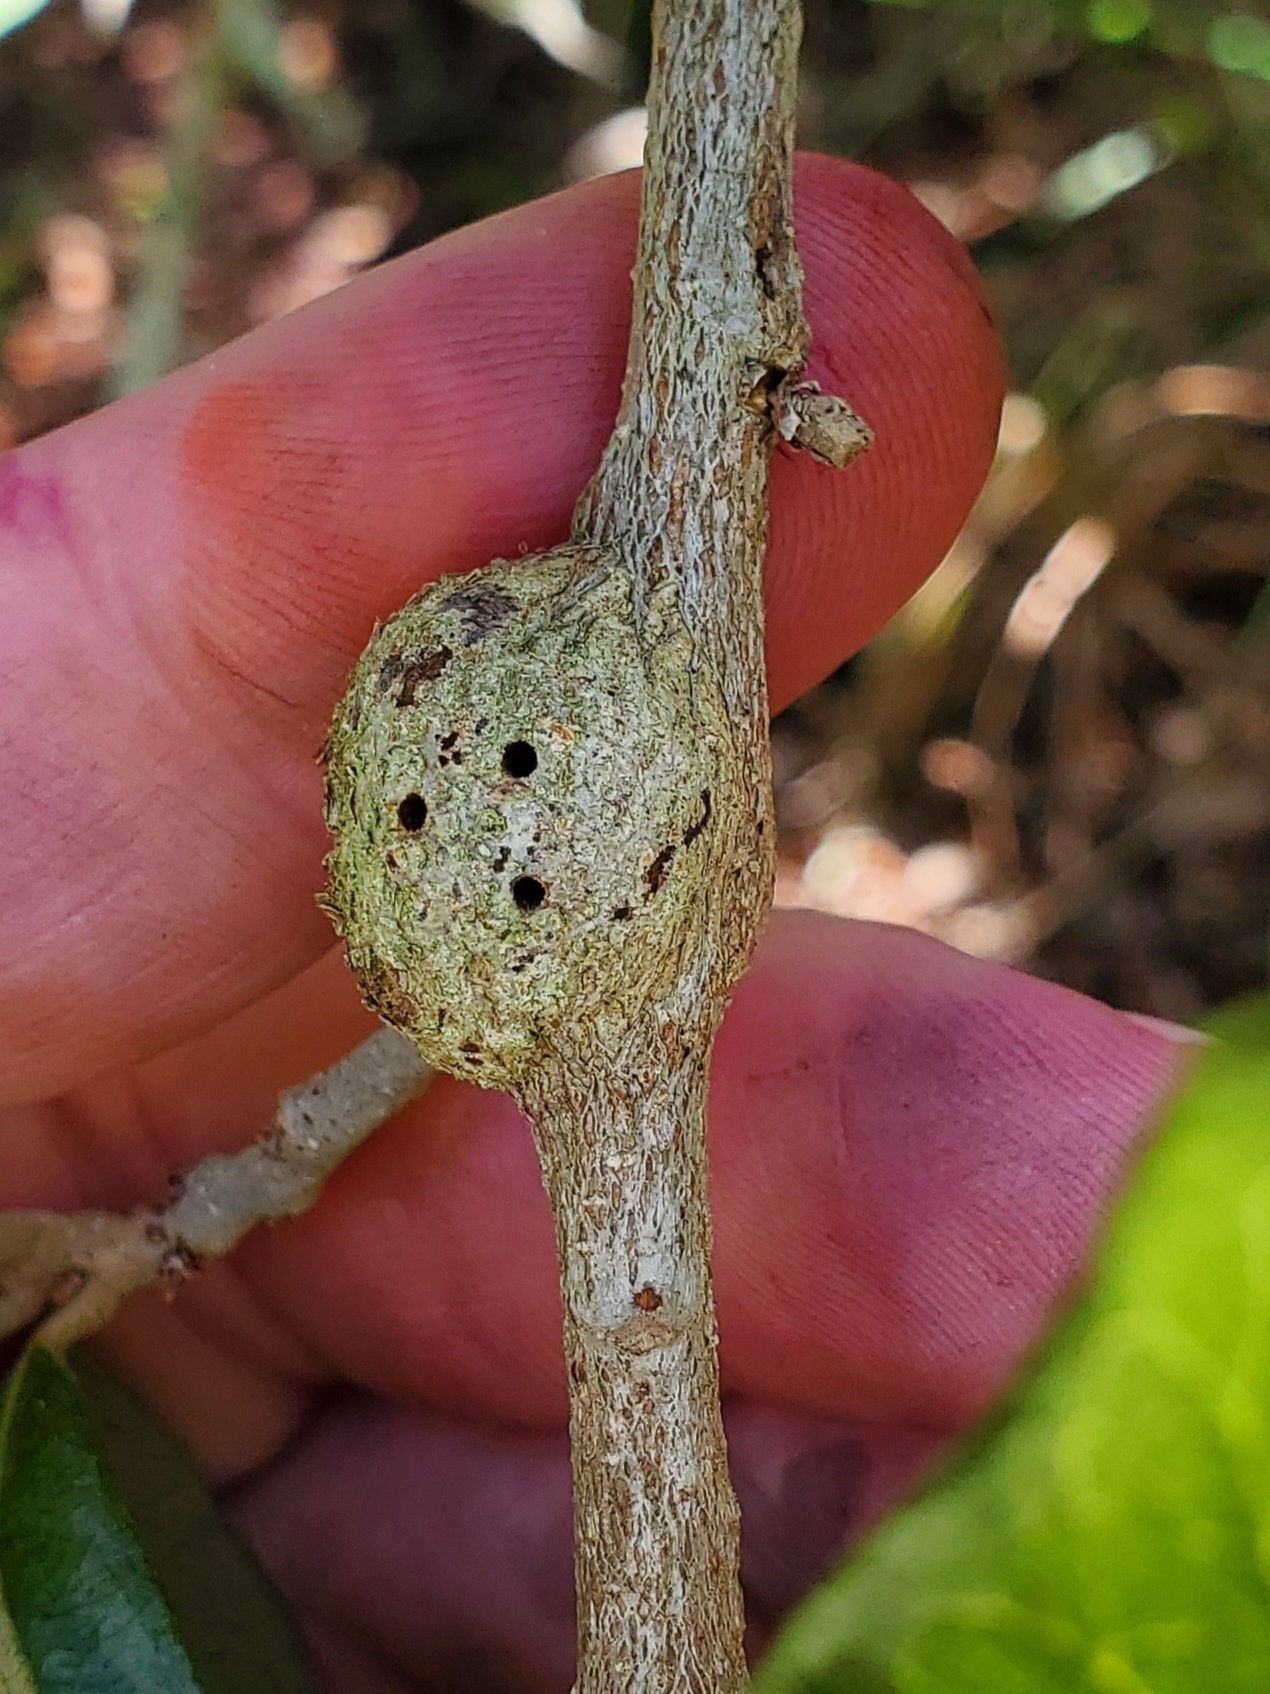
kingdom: Animalia
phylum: Arthropoda
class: Insecta
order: Hymenoptera
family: Cynipidae
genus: Callirhytis
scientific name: Callirhytis
